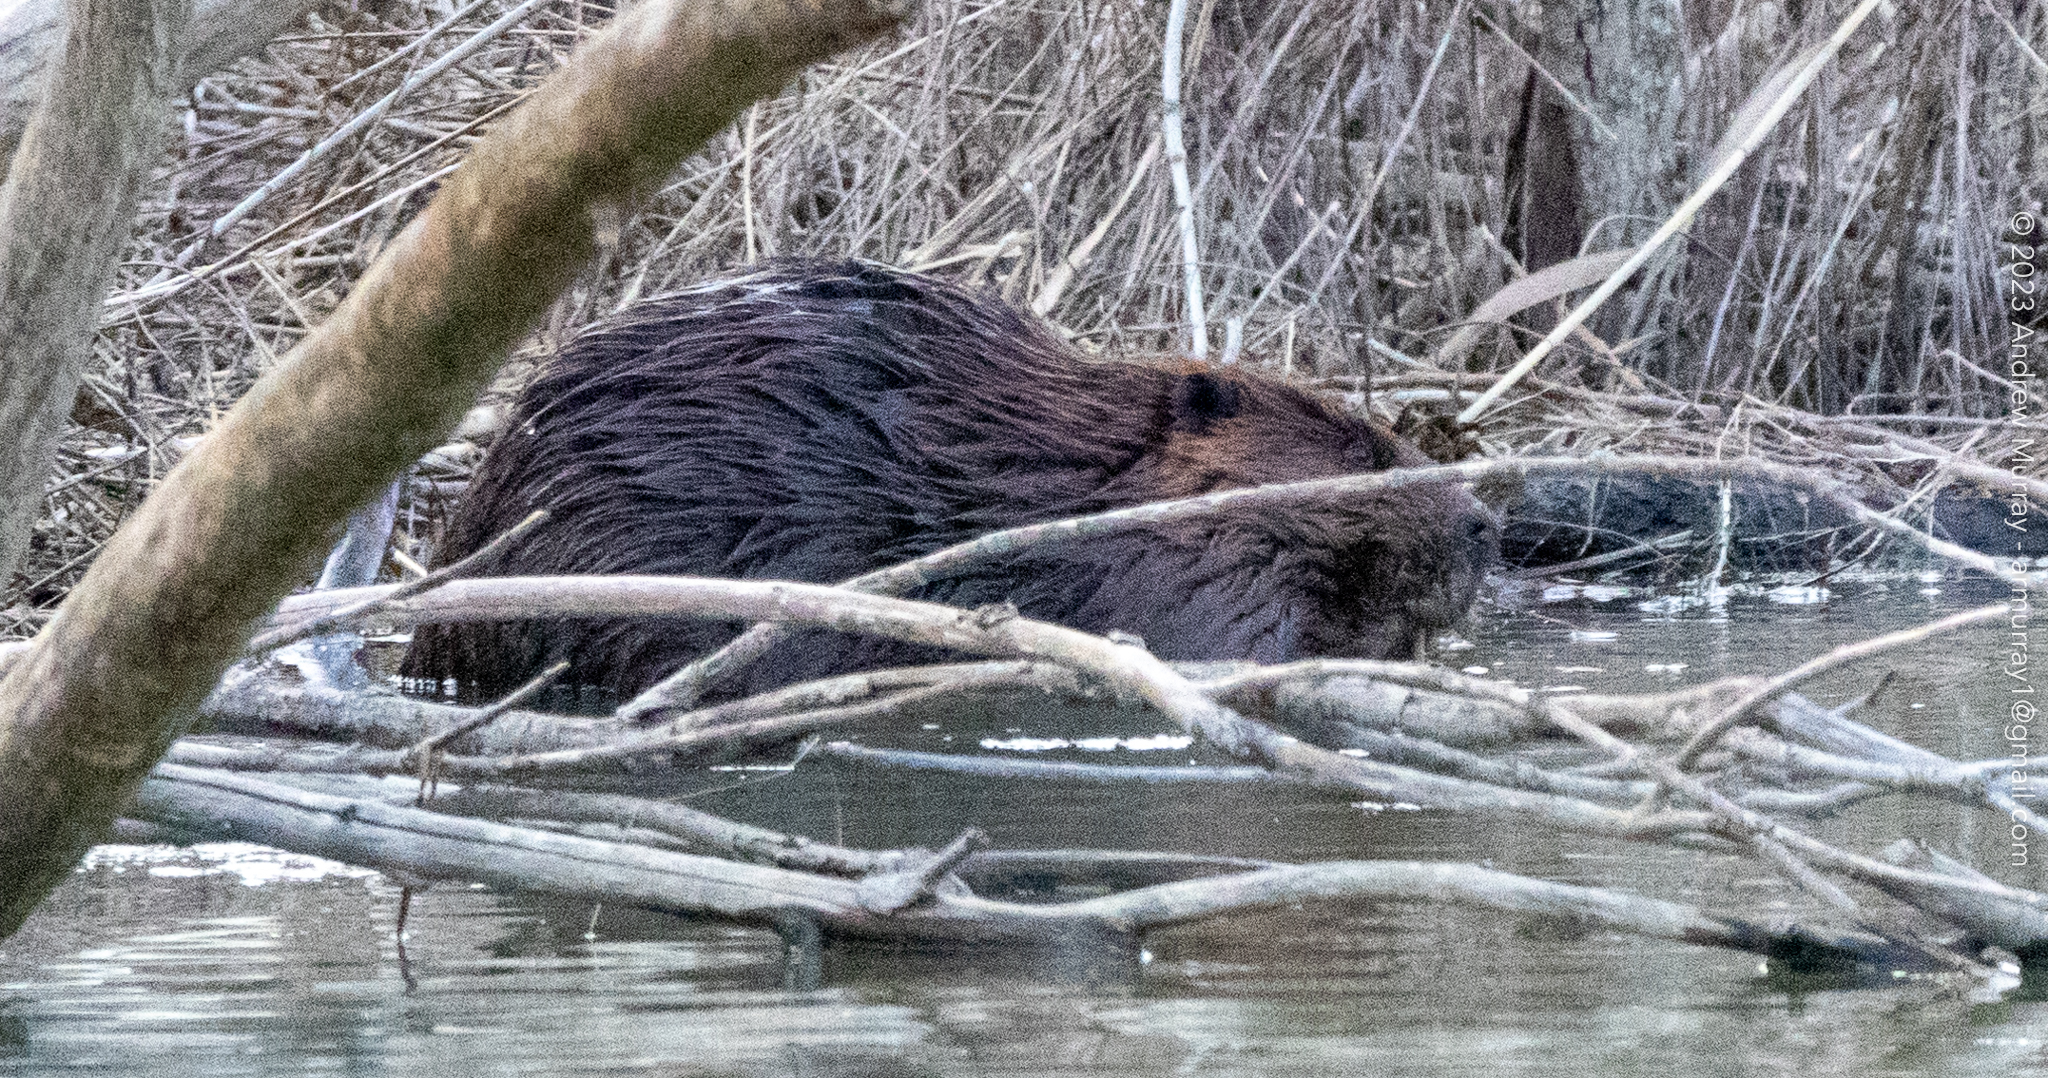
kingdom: Animalia
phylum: Chordata
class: Mammalia
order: Rodentia
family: Castoridae
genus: Castor
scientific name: Castor canadensis
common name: American beaver
